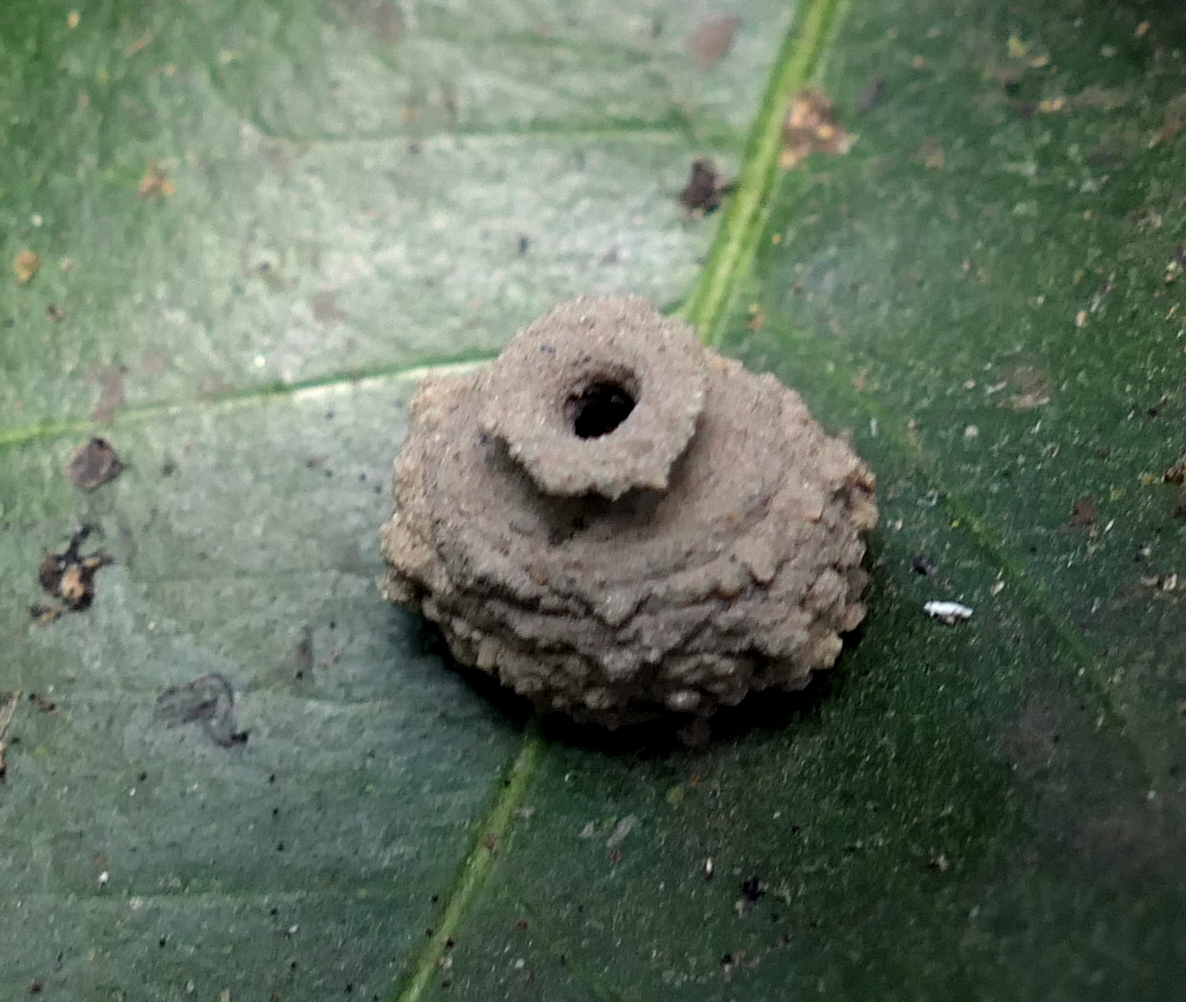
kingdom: Animalia
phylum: Arthropoda
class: Insecta
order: Hymenoptera
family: Eumenidae
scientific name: Eumenidae
